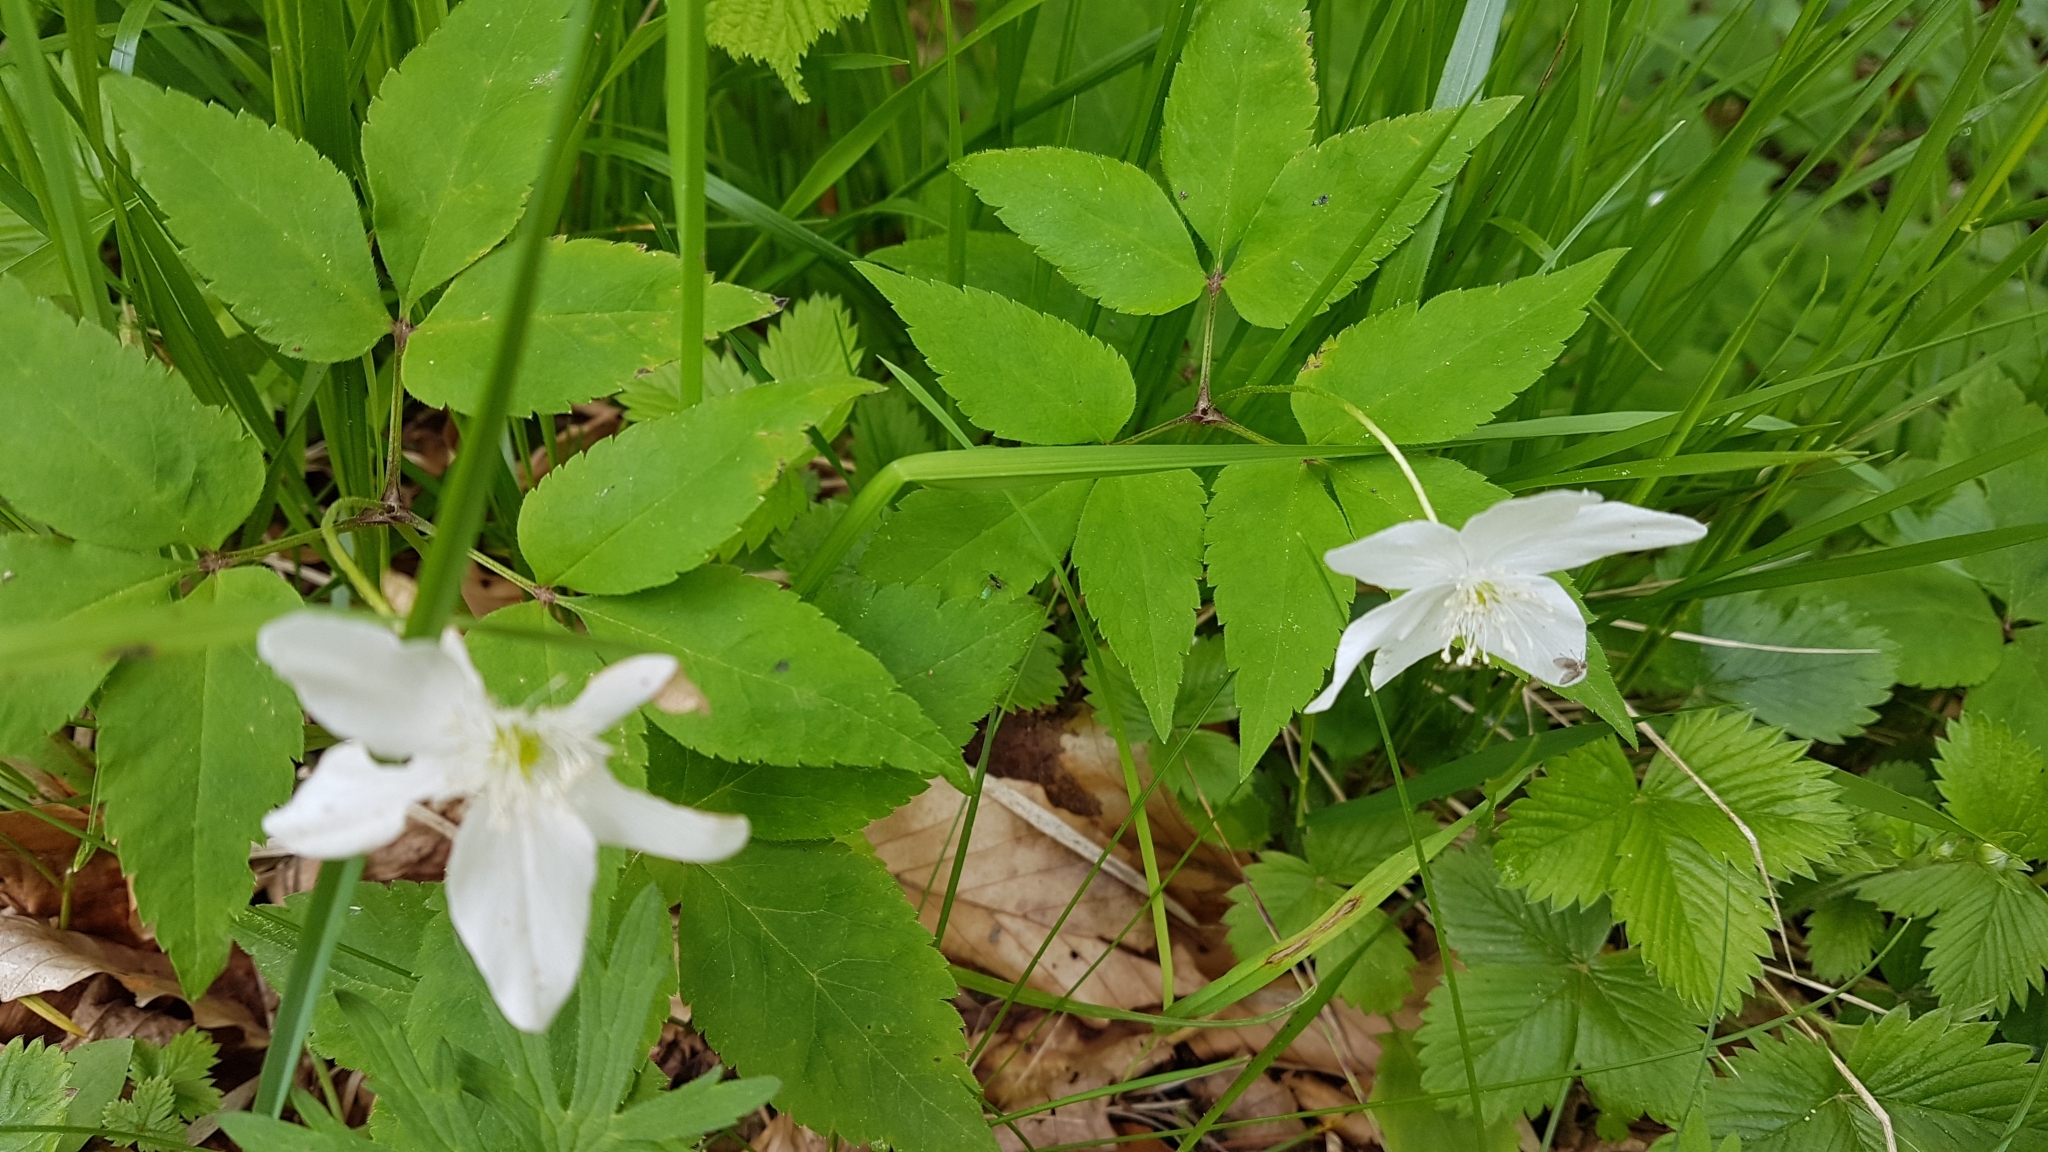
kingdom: Plantae
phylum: Tracheophyta
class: Magnoliopsida
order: Ranunculales
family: Ranunculaceae
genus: Anemone
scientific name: Anemone trifolia
